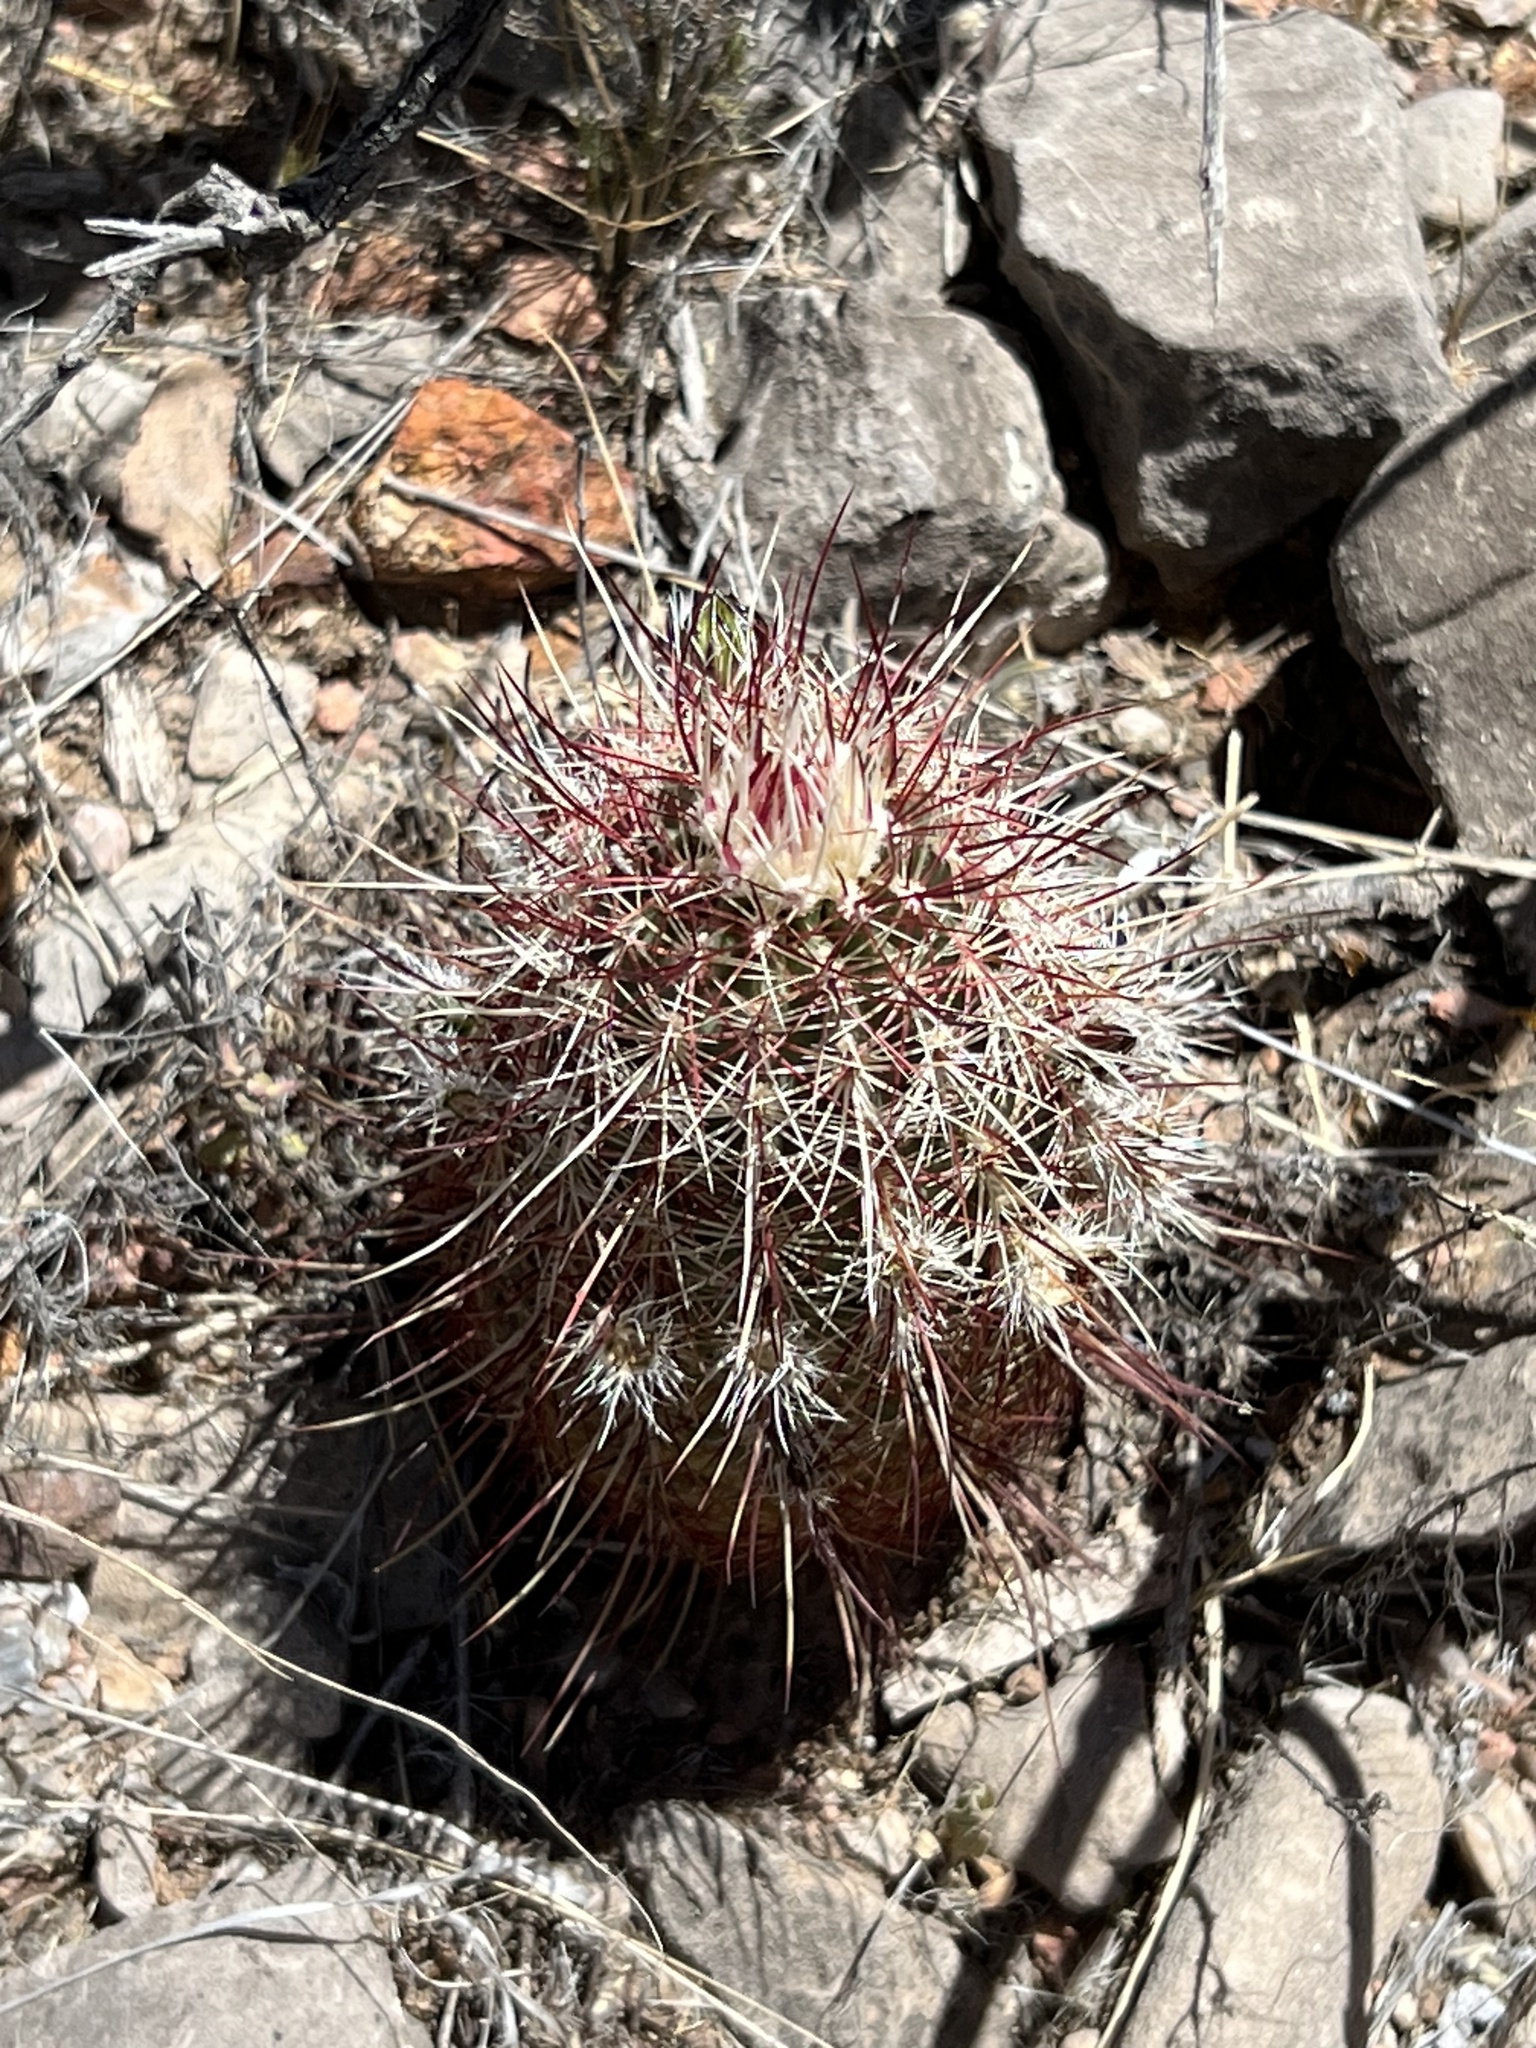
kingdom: Plantae
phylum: Tracheophyta
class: Magnoliopsida
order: Caryophyllales
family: Cactaceae
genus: Echinocereus
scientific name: Echinocereus viridiflorus
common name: Nylon hedgehog cactus
